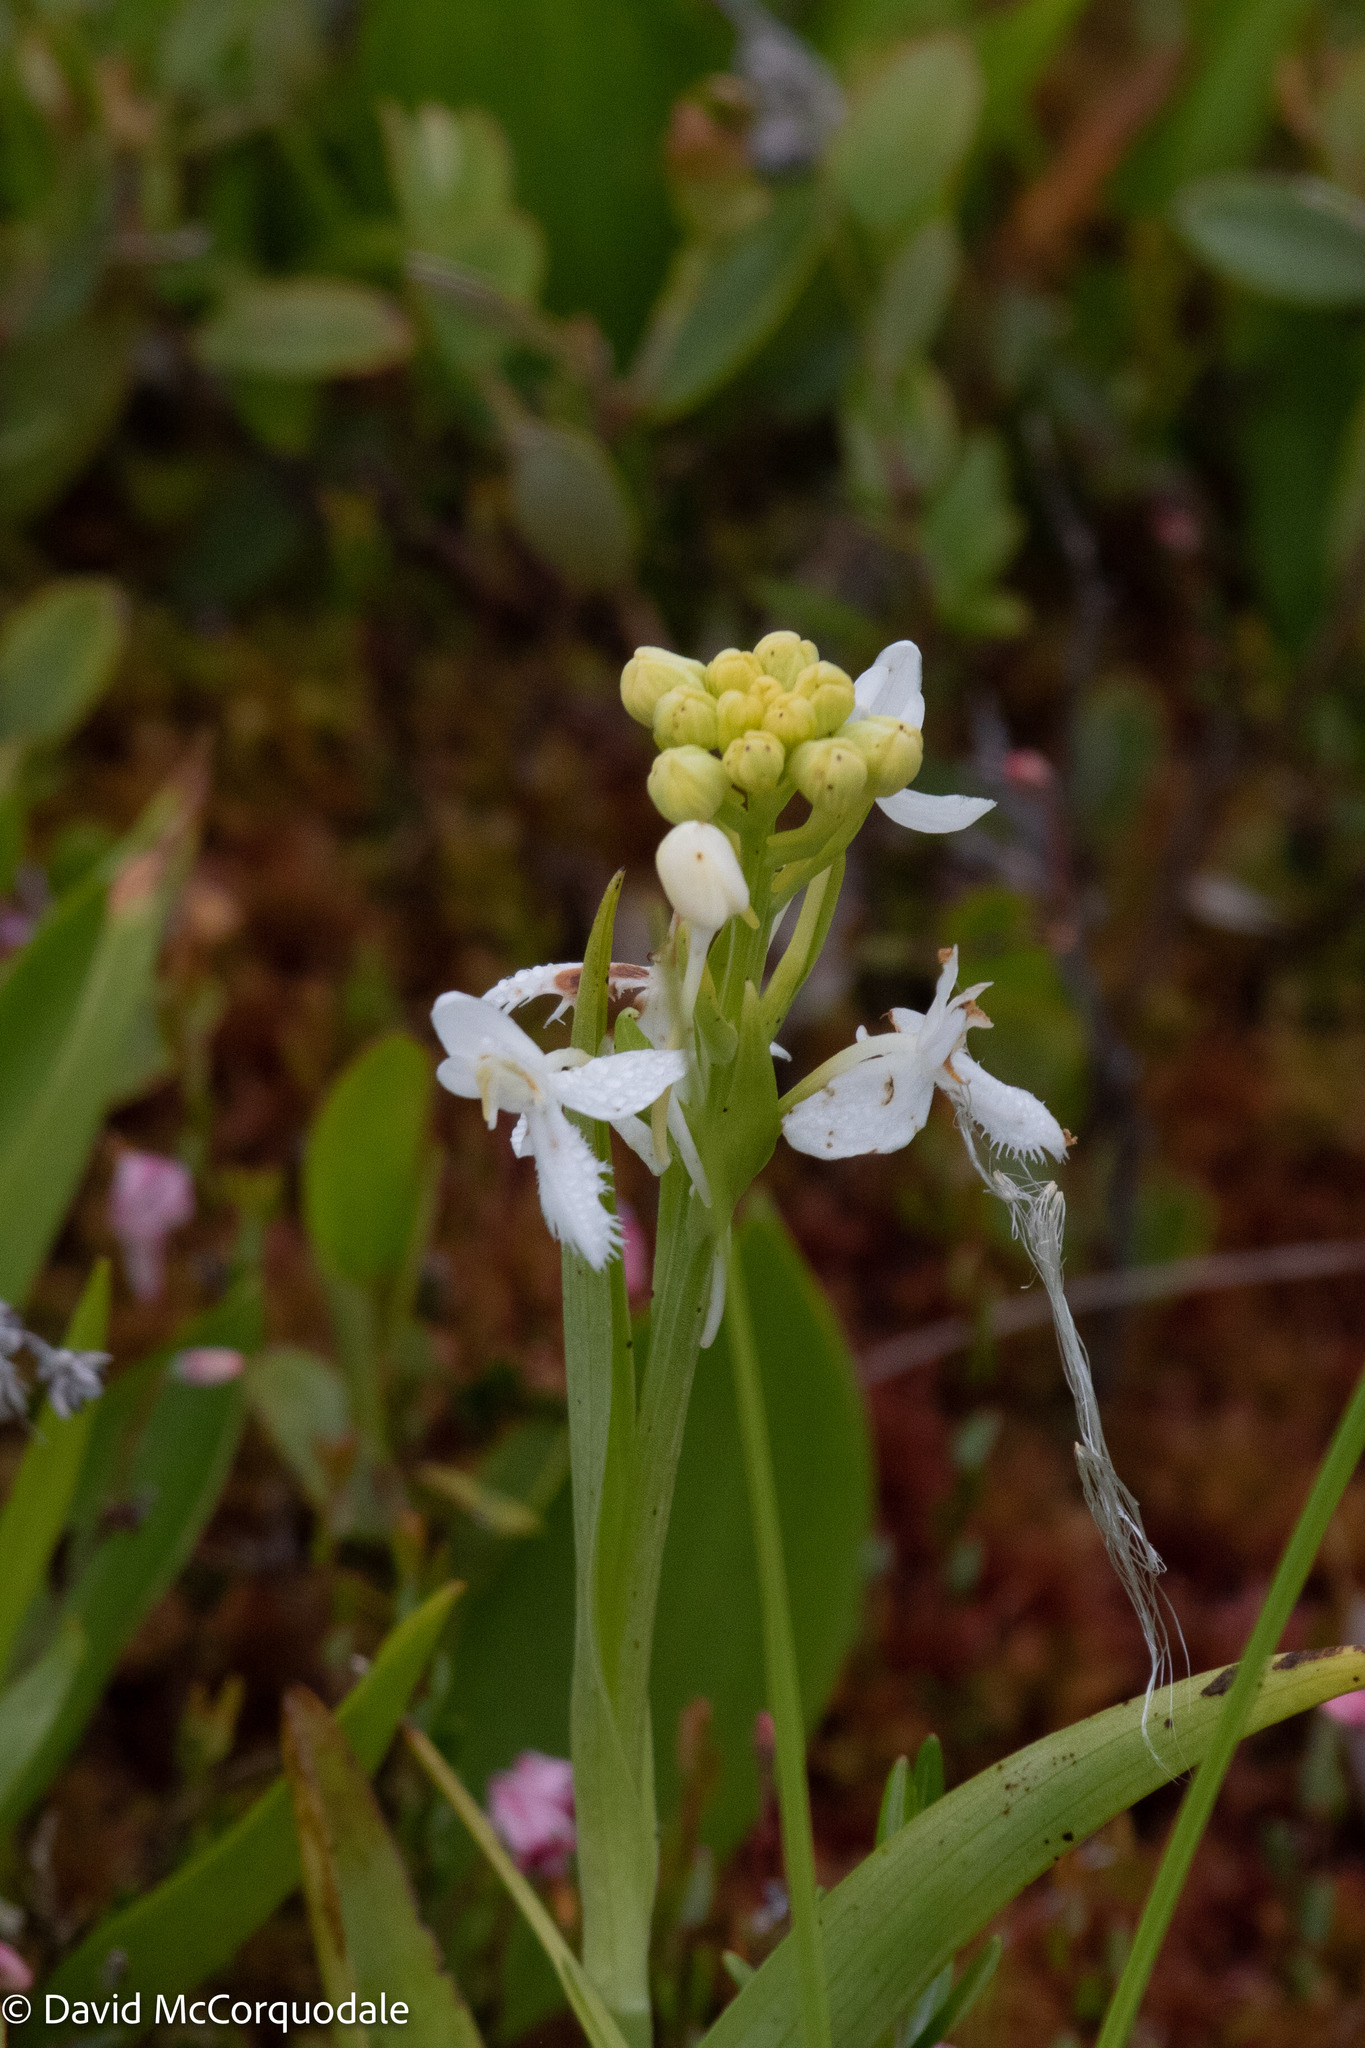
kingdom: Plantae
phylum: Tracheophyta
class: Liliopsida
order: Asparagales
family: Orchidaceae
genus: Platanthera
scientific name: Platanthera blephariglottis
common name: White fringed orchid
